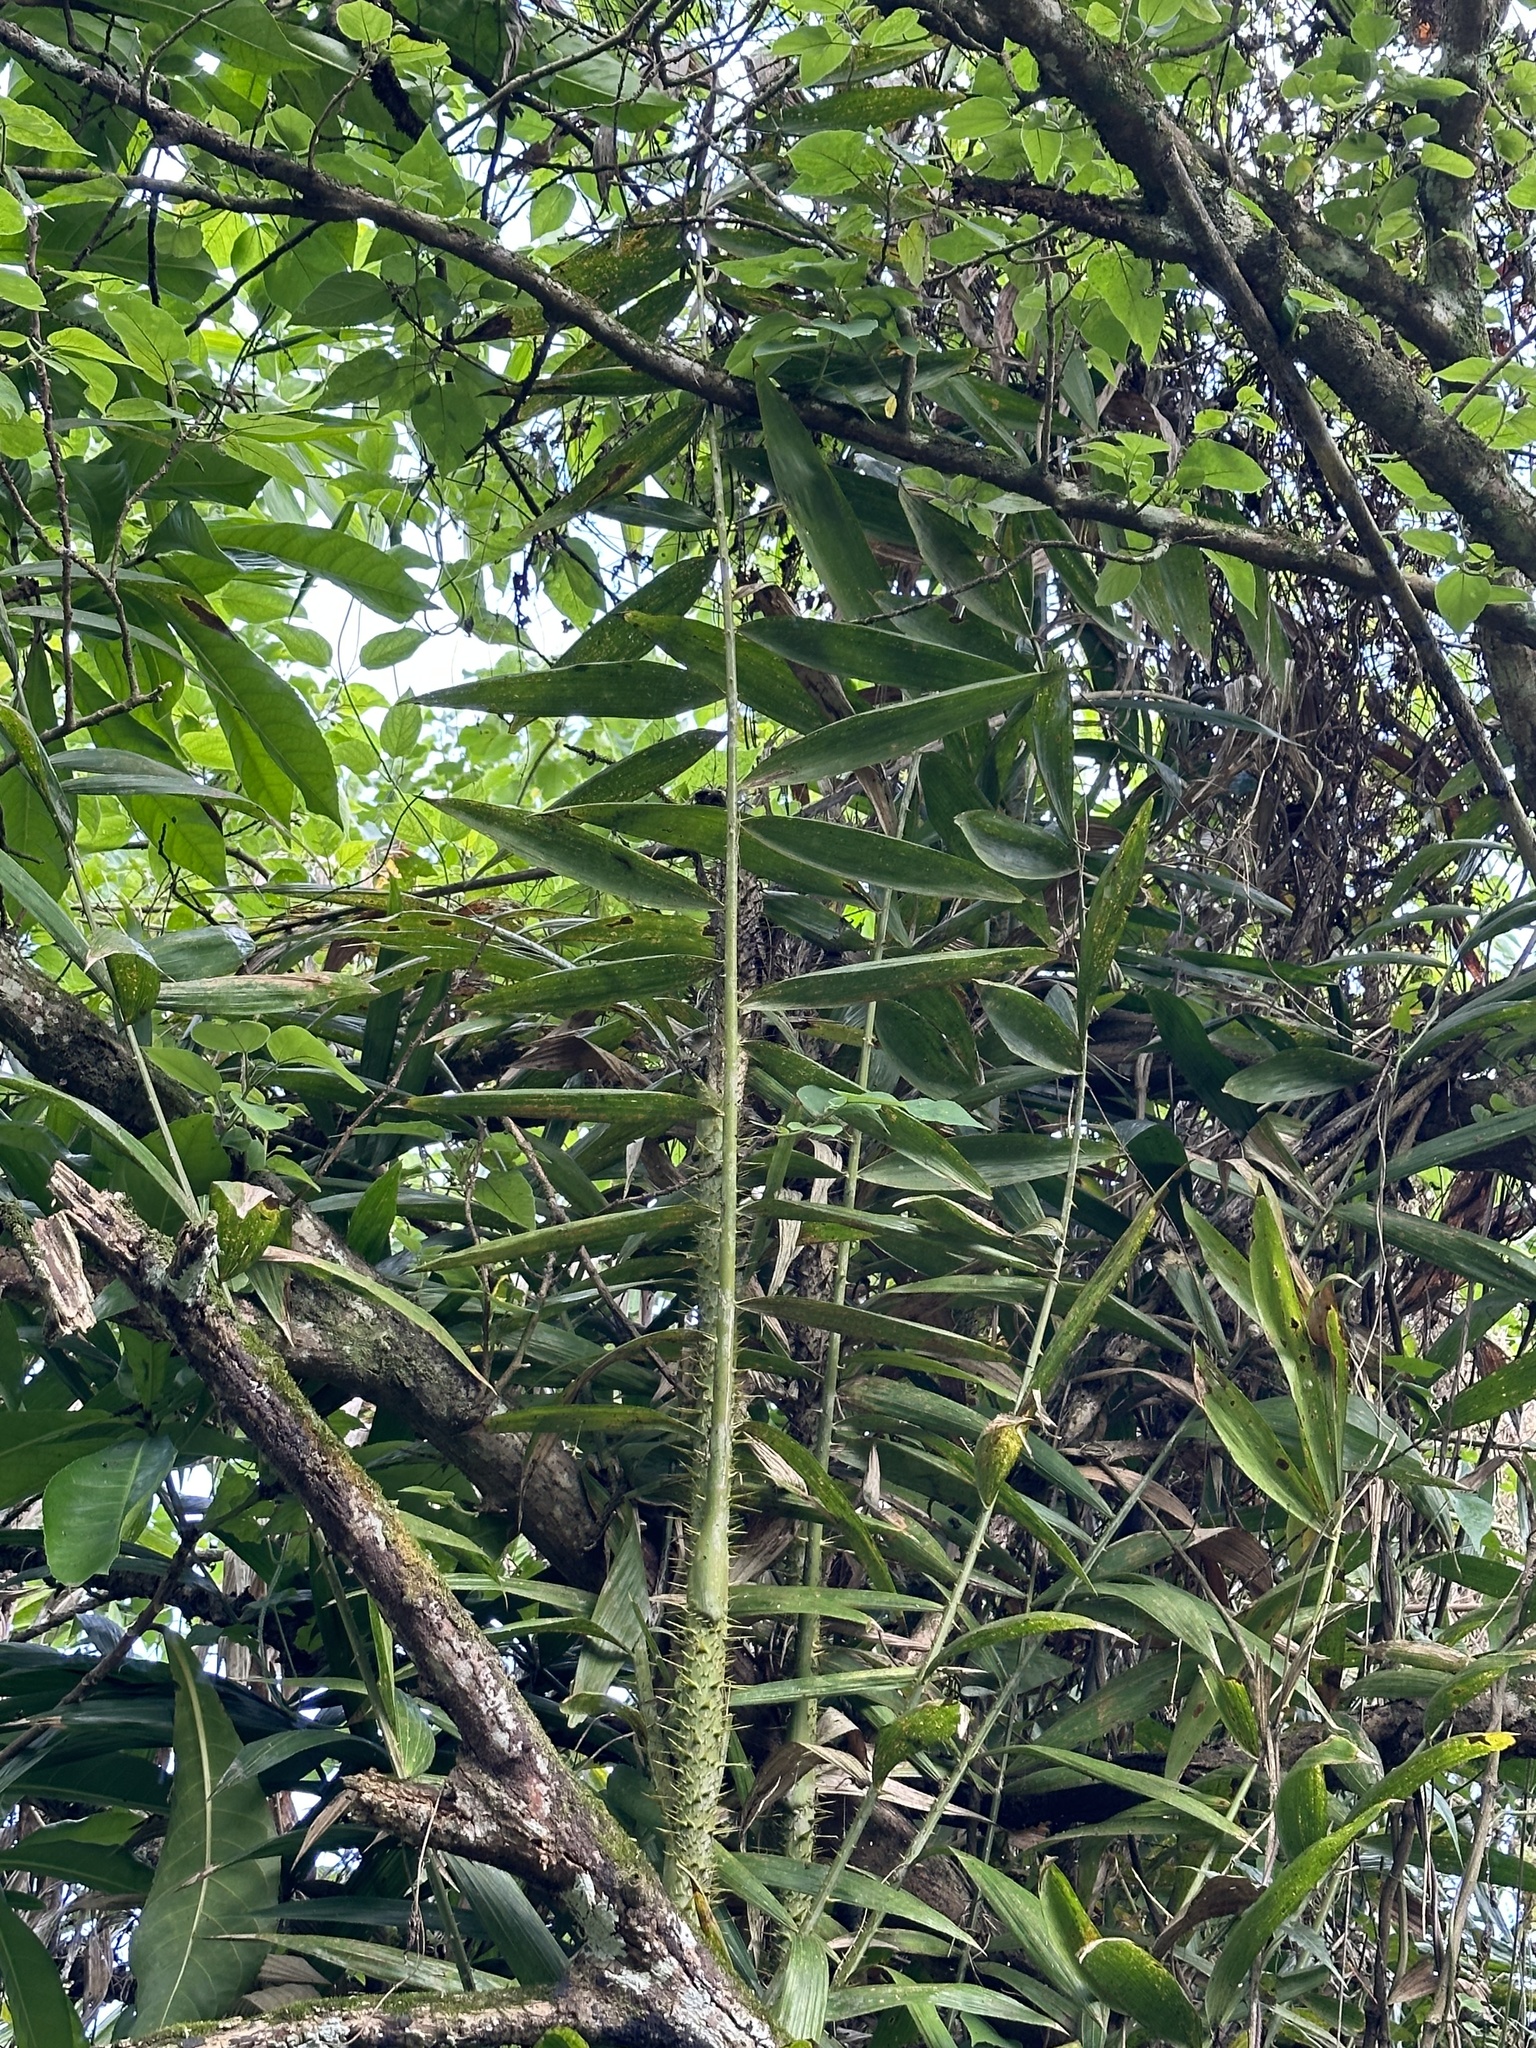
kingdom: Plantae
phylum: Tracheophyta
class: Liliopsida
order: Arecales
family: Arecaceae
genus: Calamus
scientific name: Calamus formosanus
